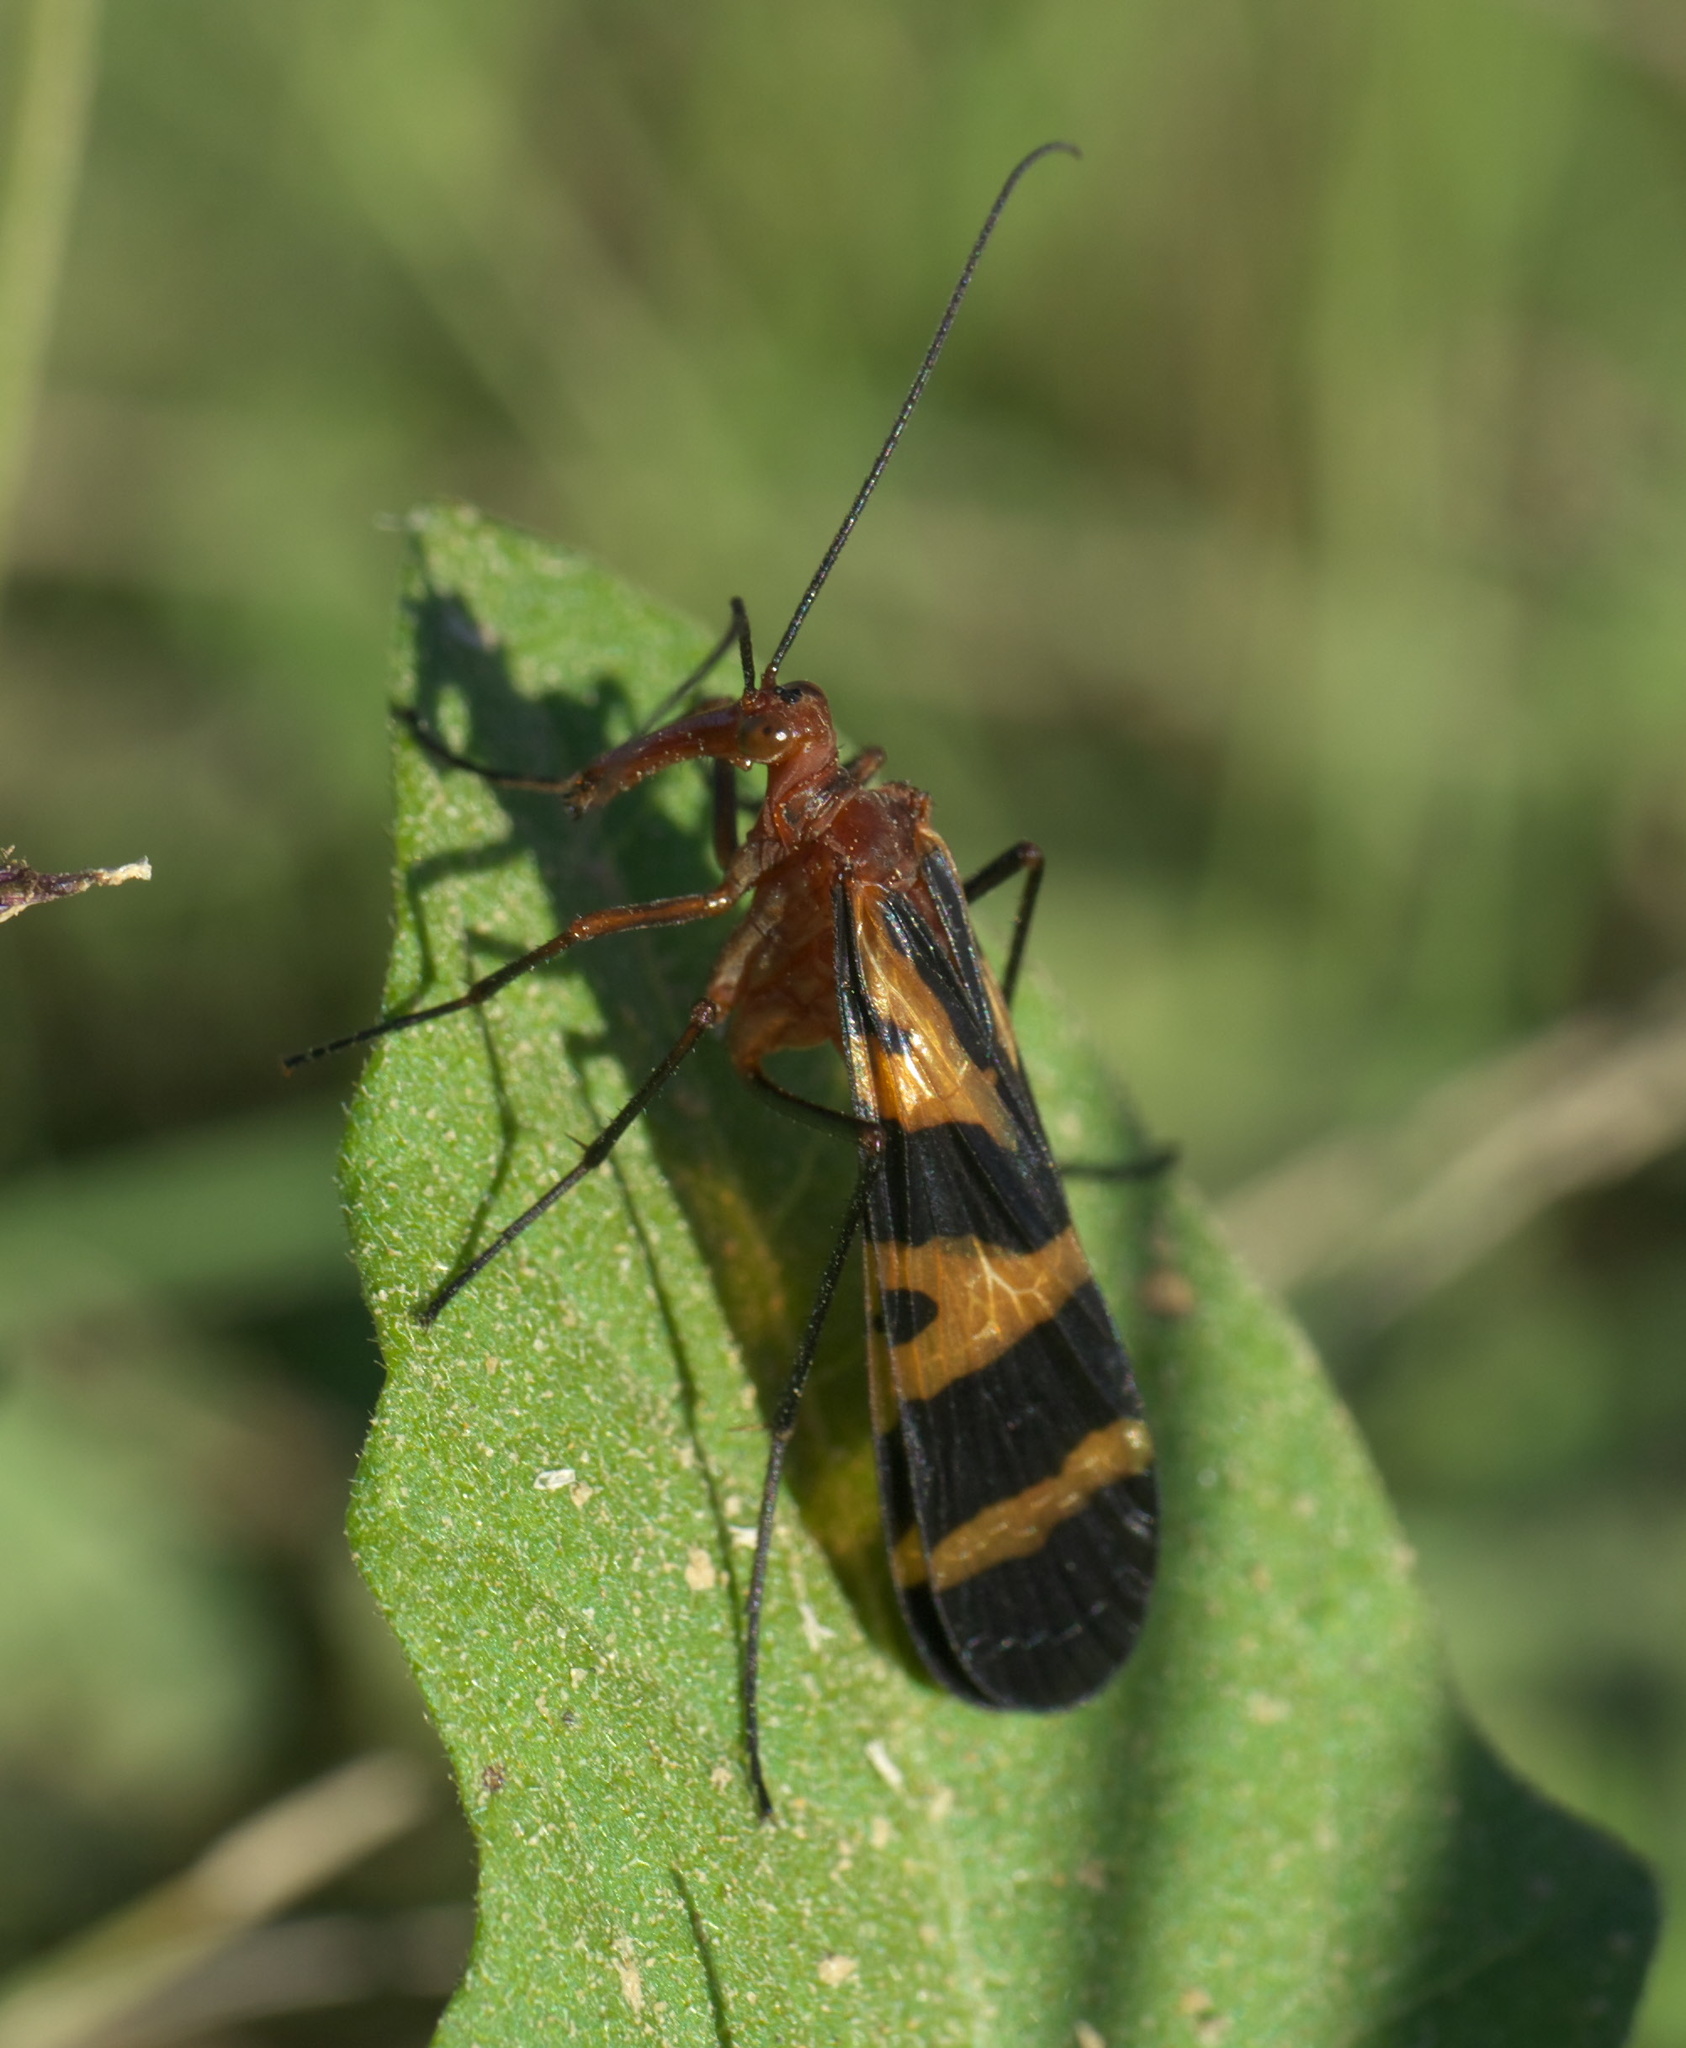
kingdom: Animalia
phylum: Arthropoda
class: Insecta
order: Mecoptera
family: Panorpidae
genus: Panorpa
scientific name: Panorpa nuptialis
